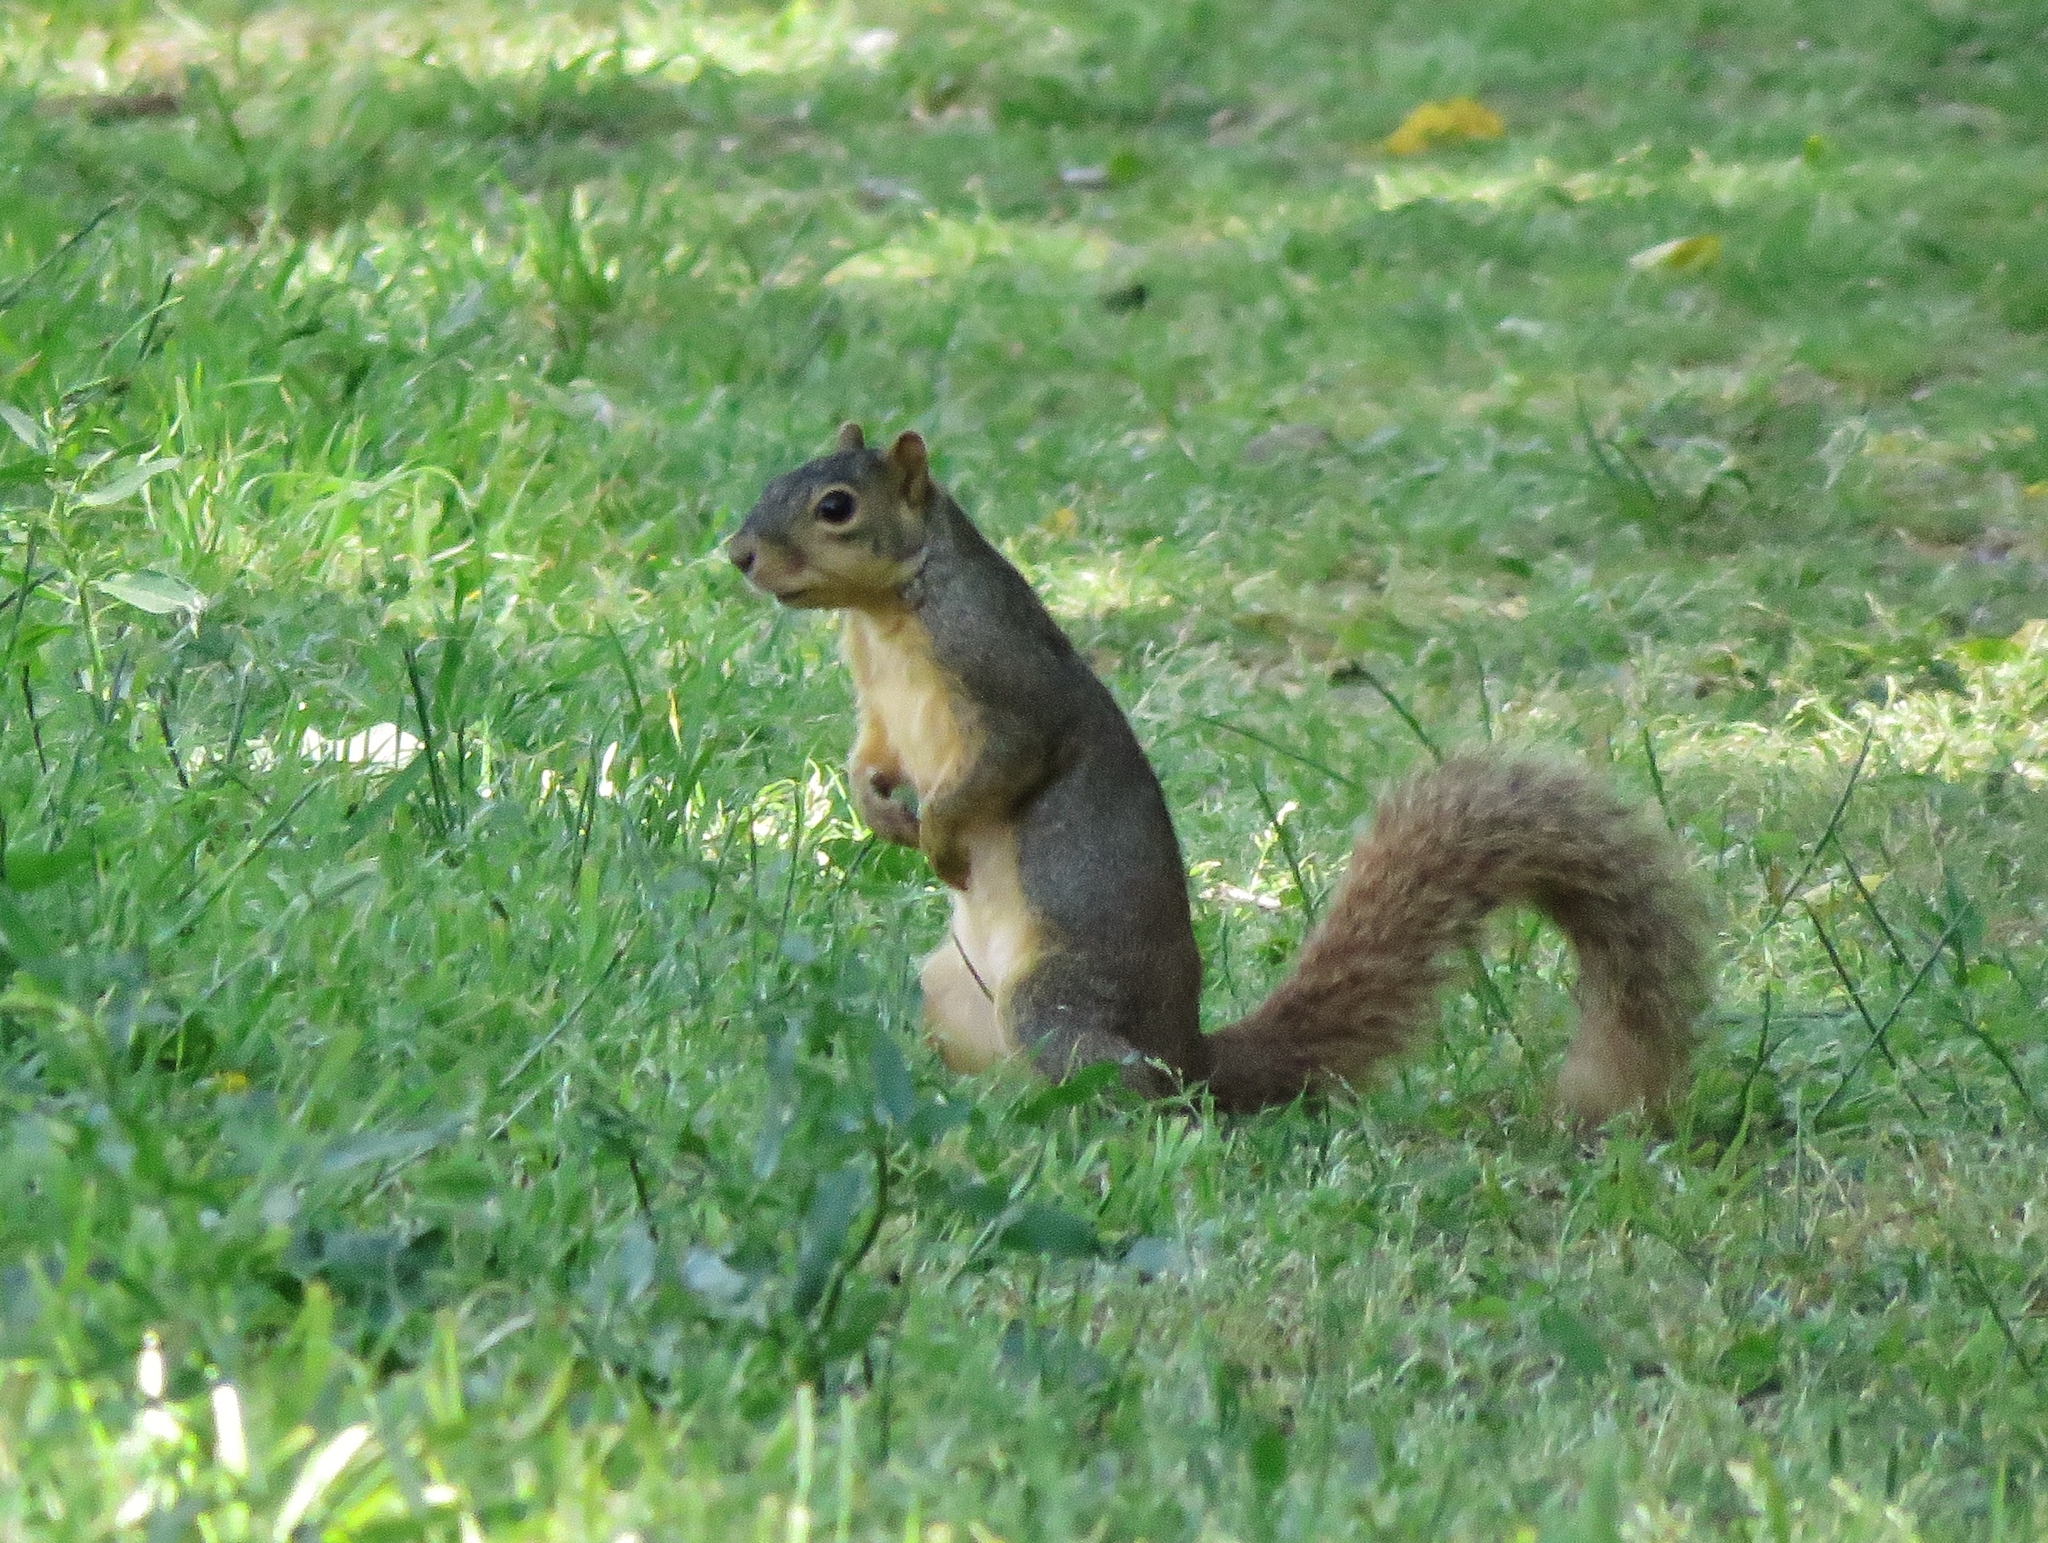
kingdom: Animalia
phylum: Chordata
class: Mammalia
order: Rodentia
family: Sciuridae
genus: Sciurus
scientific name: Sciurus niger
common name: Fox squirrel
